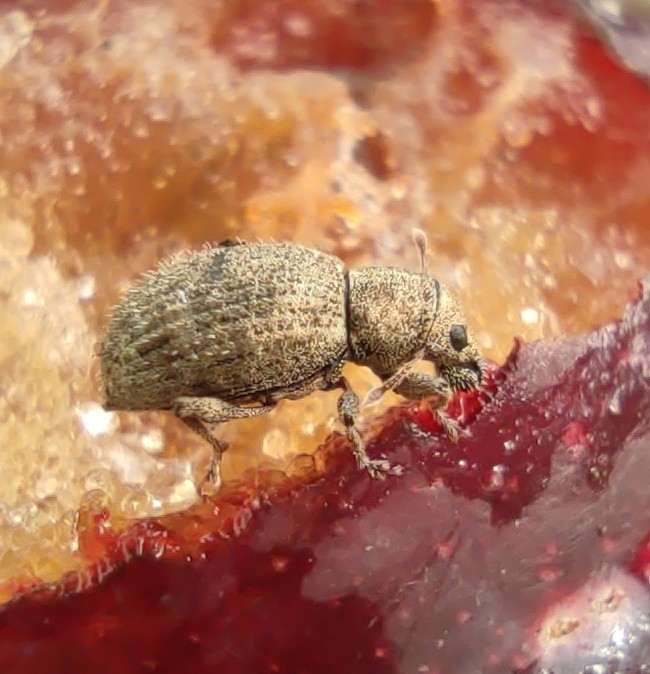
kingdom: Animalia
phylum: Arthropoda
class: Insecta
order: Coleoptera
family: Curculionidae
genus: Sciaphilus
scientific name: Sciaphilus asperatus
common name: Weevil
